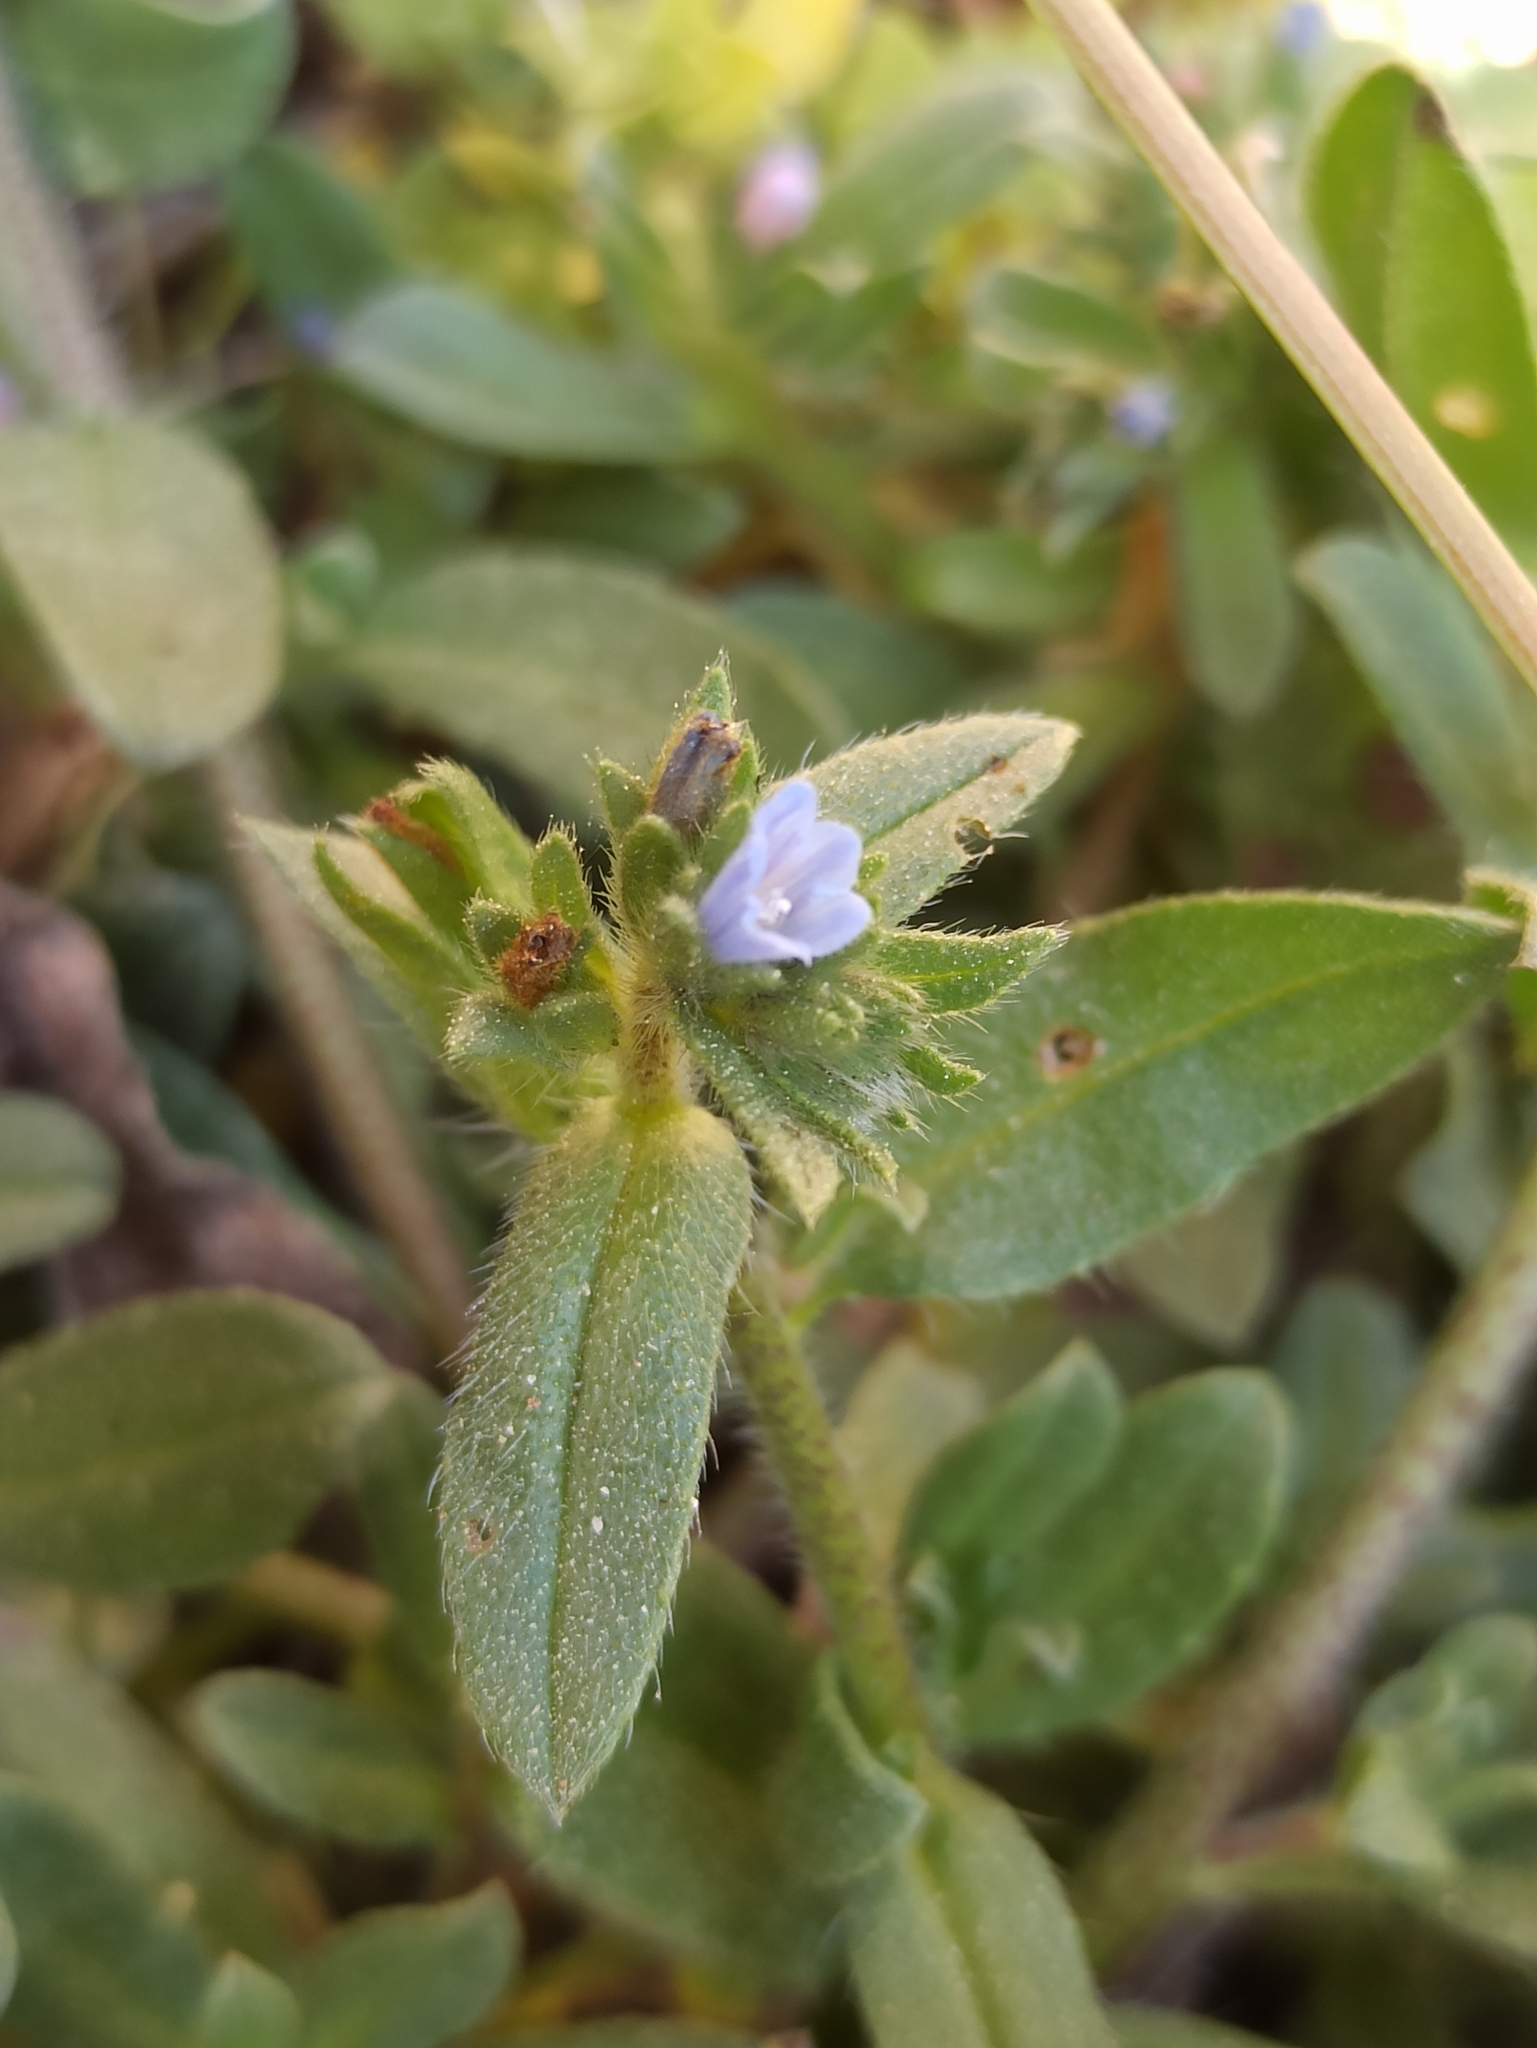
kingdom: Plantae
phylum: Tracheophyta
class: Magnoliopsida
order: Boraginales
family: Boraginaceae
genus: Echium
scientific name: Echium parviflorum
